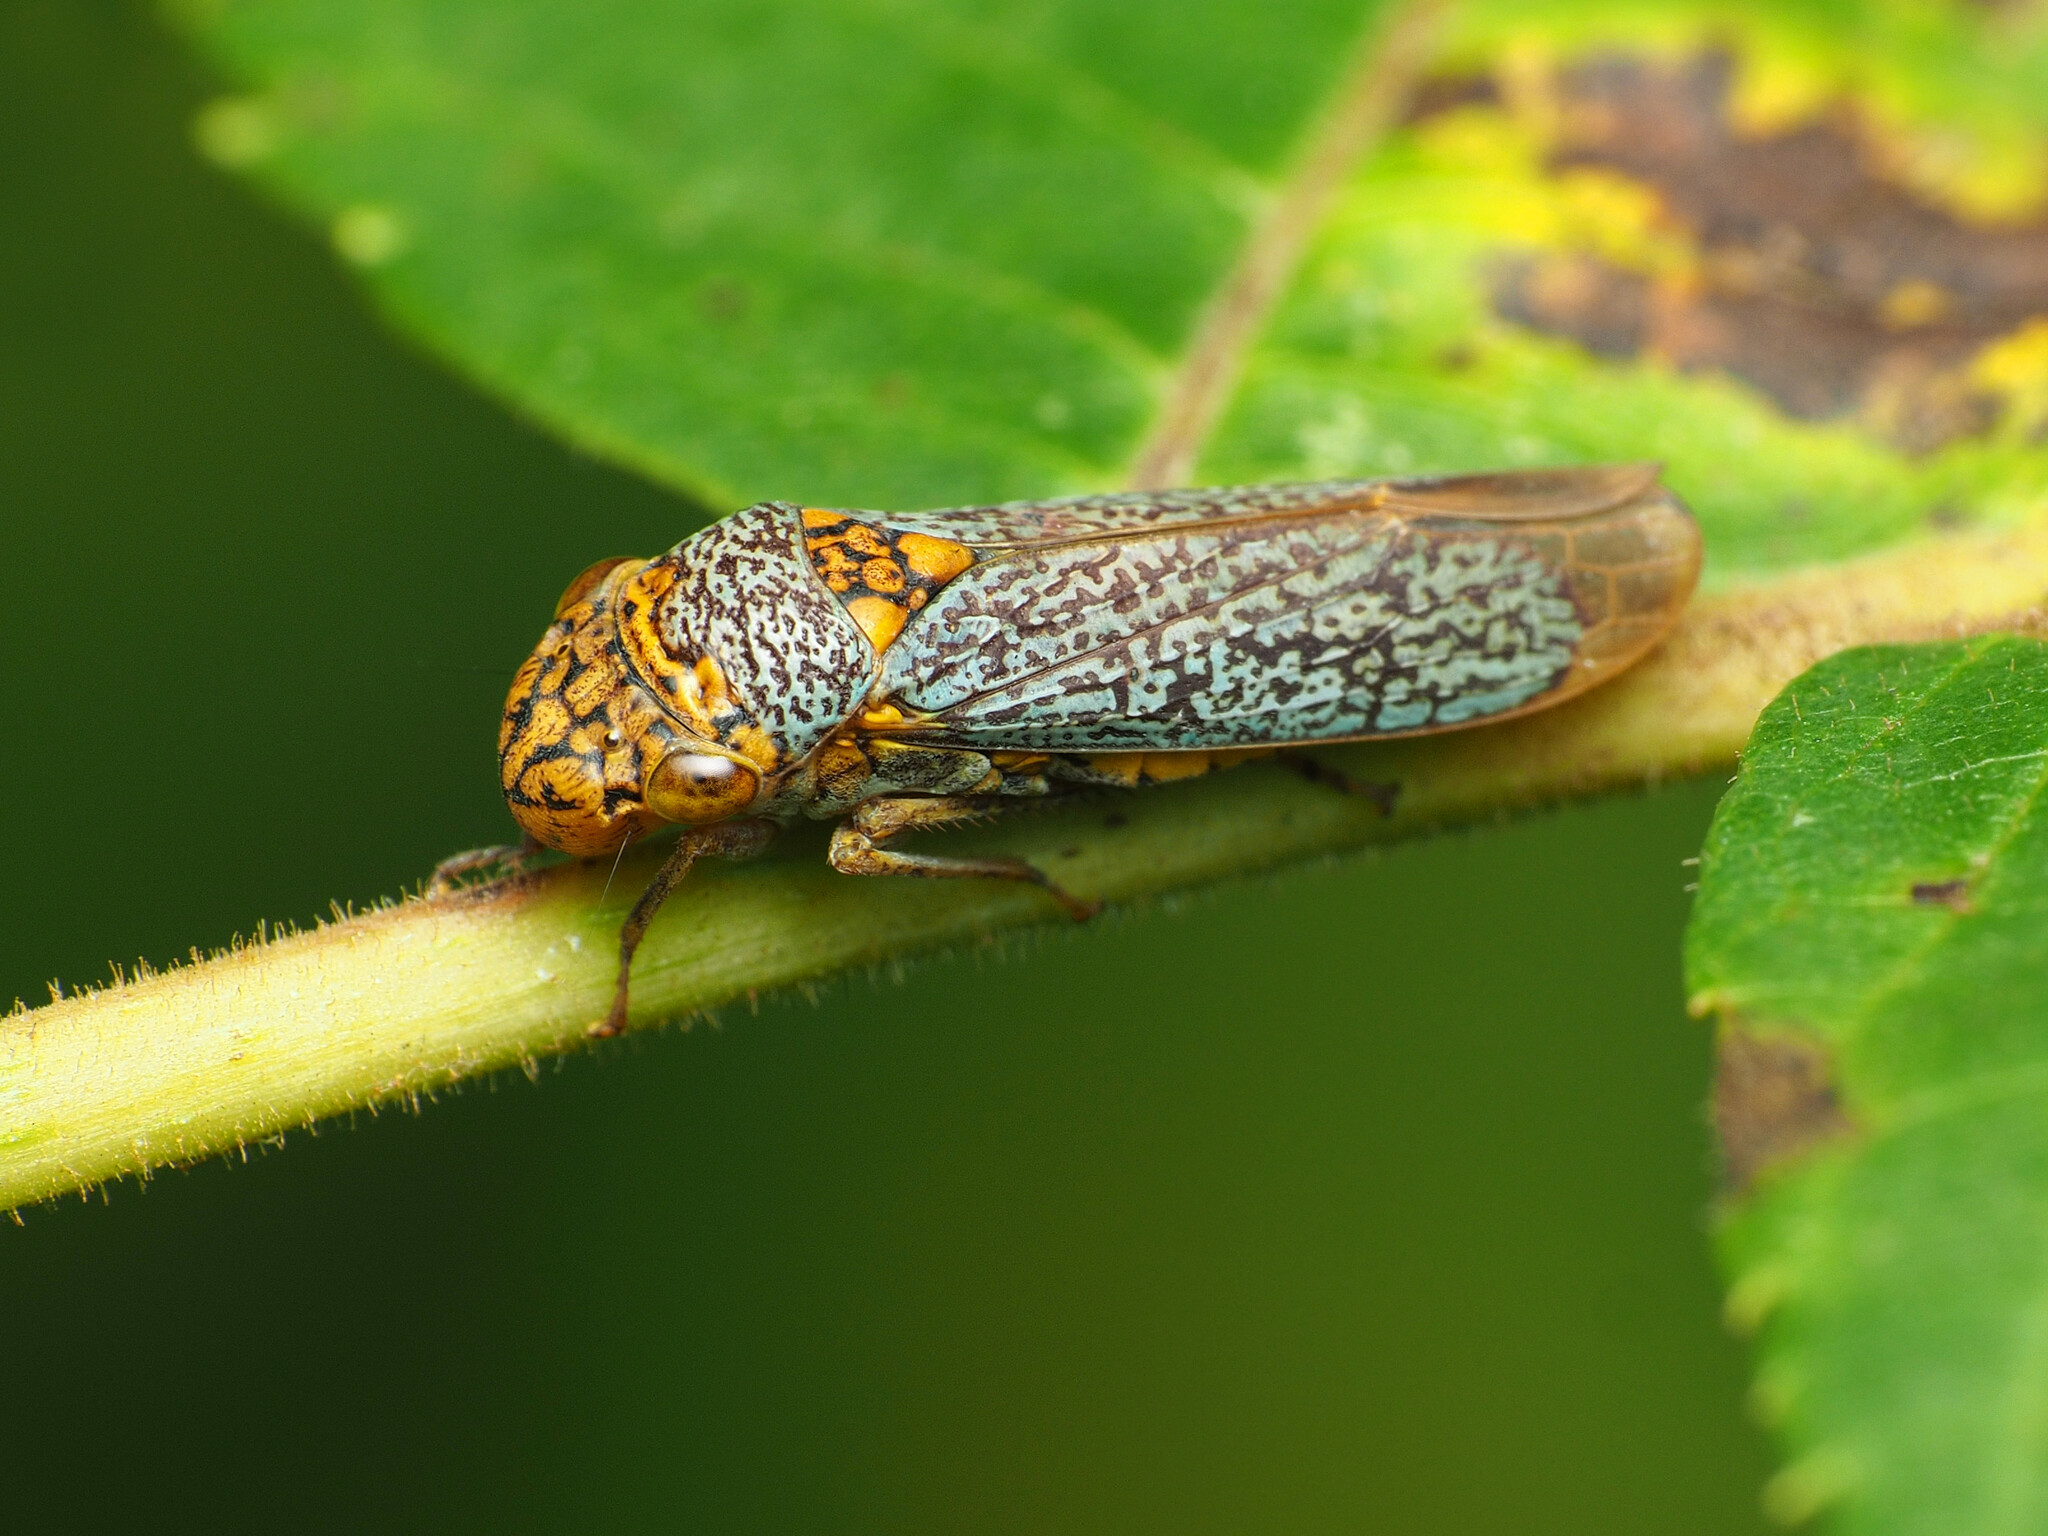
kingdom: Animalia
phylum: Arthropoda
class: Insecta
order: Hemiptera
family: Cicadellidae
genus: Oncometopia
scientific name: Oncometopia orbona
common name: Broad-headed sharpshooter
